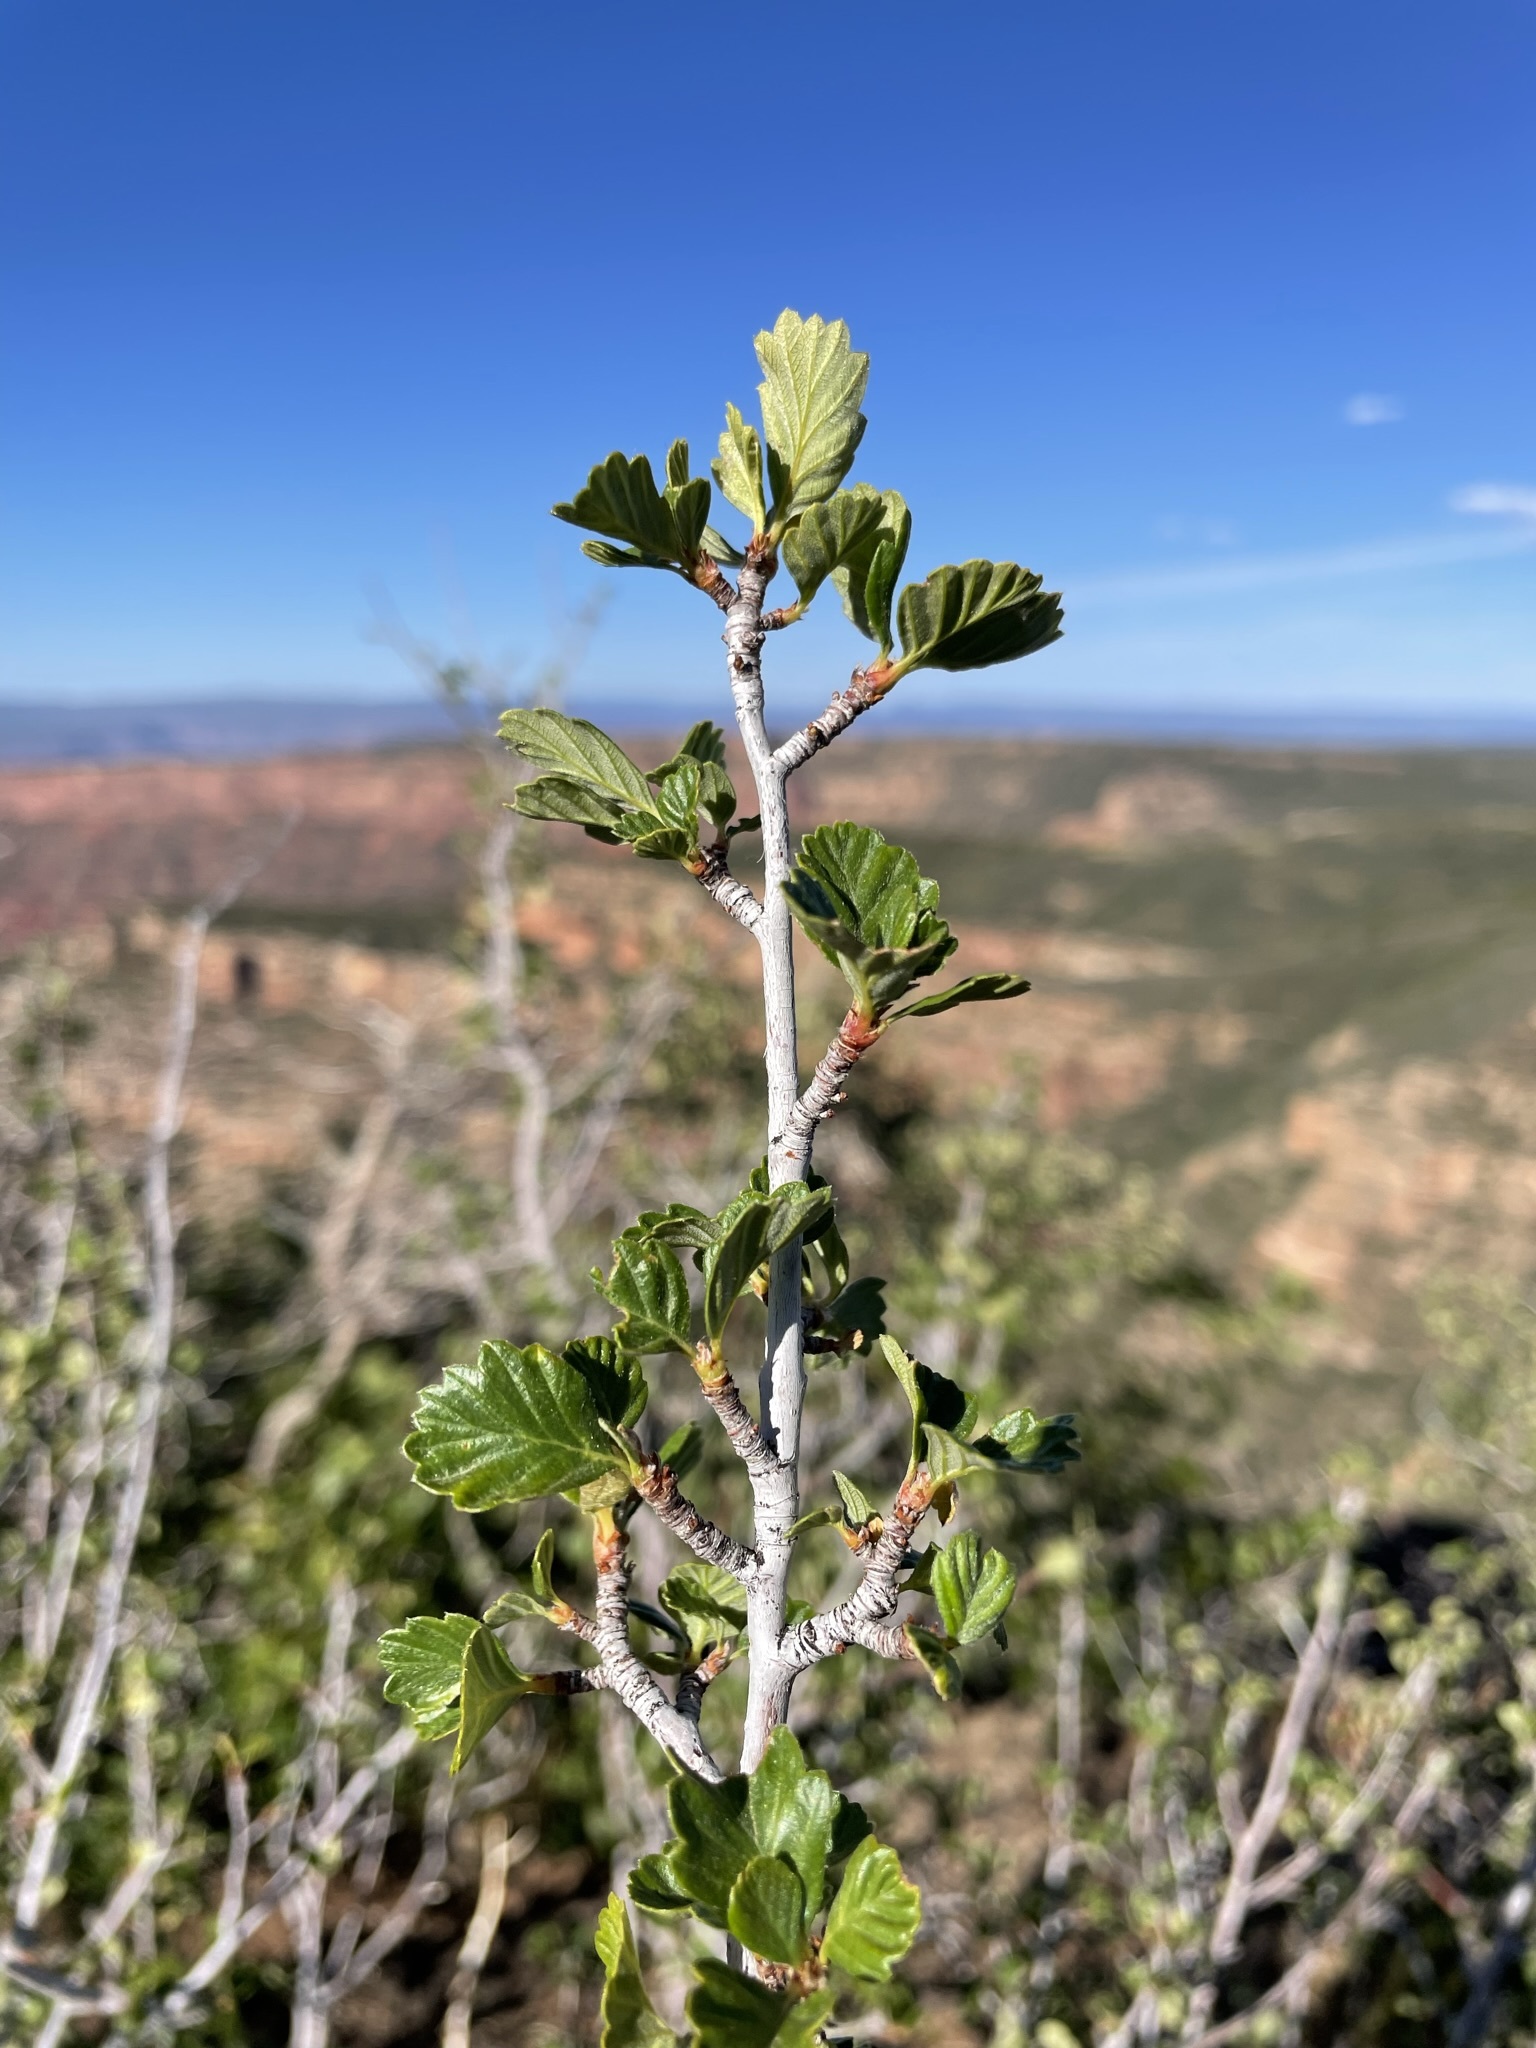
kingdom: Plantae
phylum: Tracheophyta
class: Magnoliopsida
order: Rosales
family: Rosaceae
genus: Cercocarpus
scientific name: Cercocarpus montanus
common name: Alder-leaf cercocarpus
